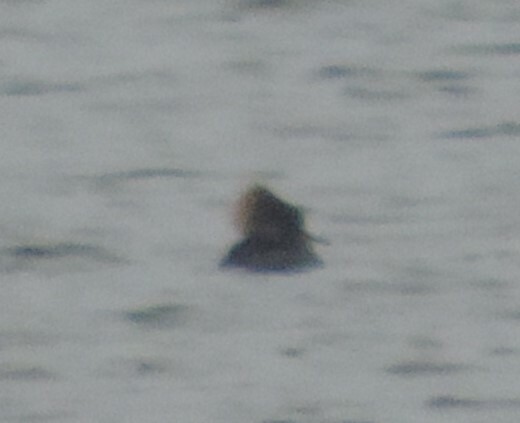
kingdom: Animalia
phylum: Chordata
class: Aves
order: Anseriformes
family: Anatidae
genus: Lophodytes
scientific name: Lophodytes cucullatus
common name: Hooded merganser
